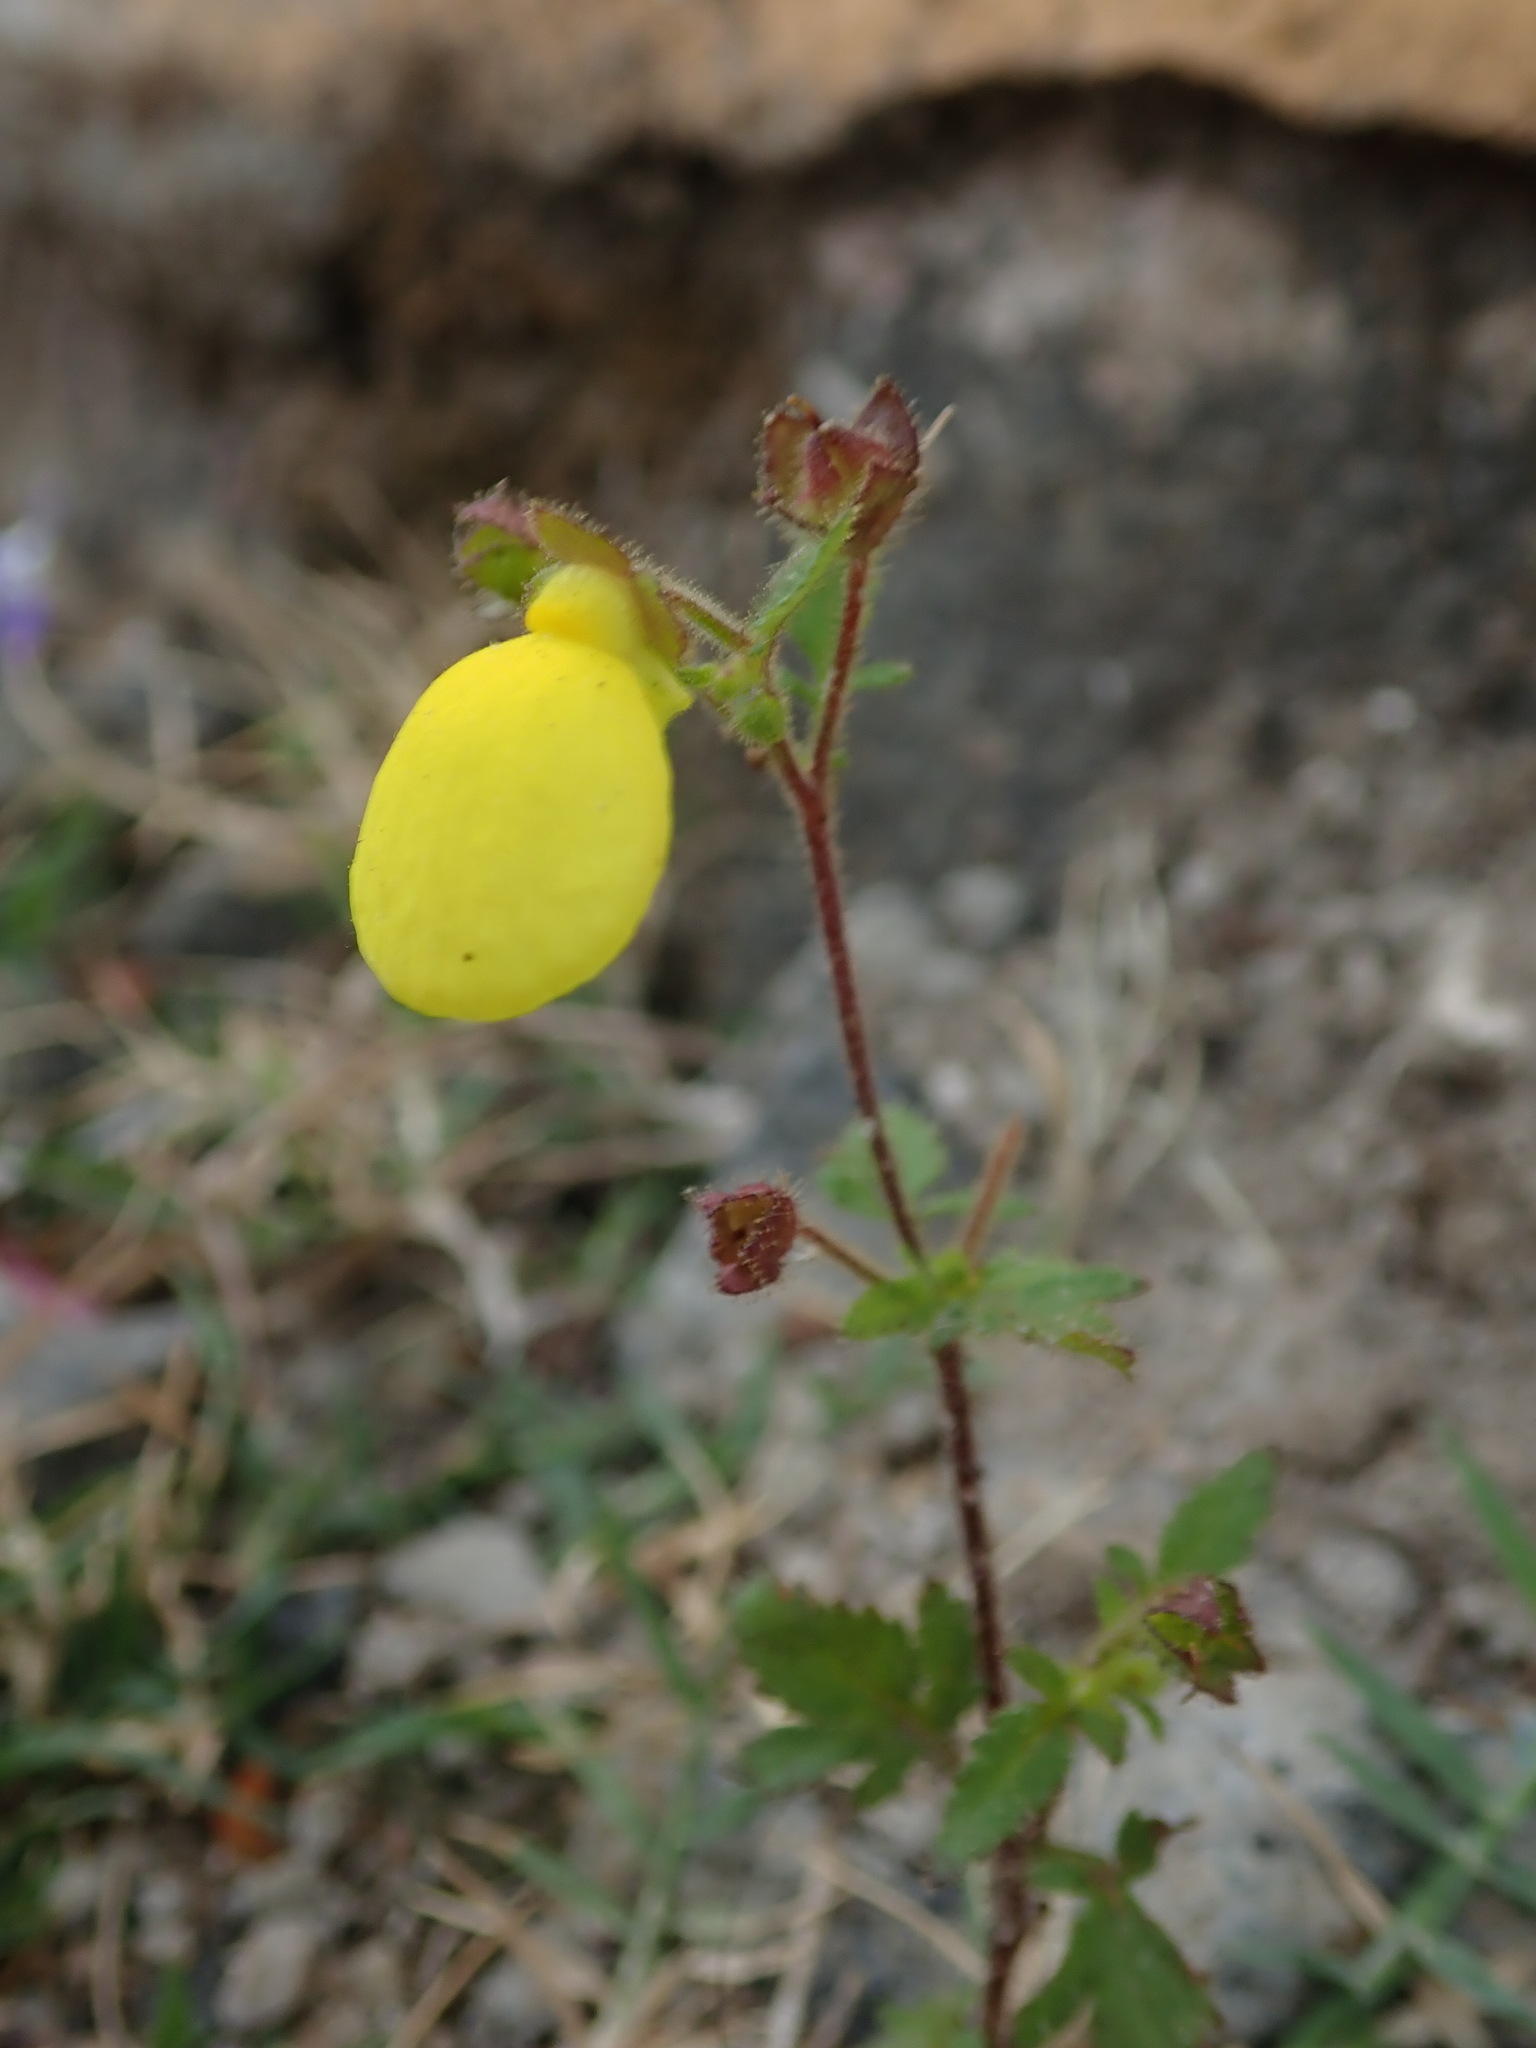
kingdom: Plantae
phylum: Tracheophyta
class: Magnoliopsida
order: Lamiales
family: Calceolariaceae
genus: Calceolaria
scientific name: Calceolaria tripartita
